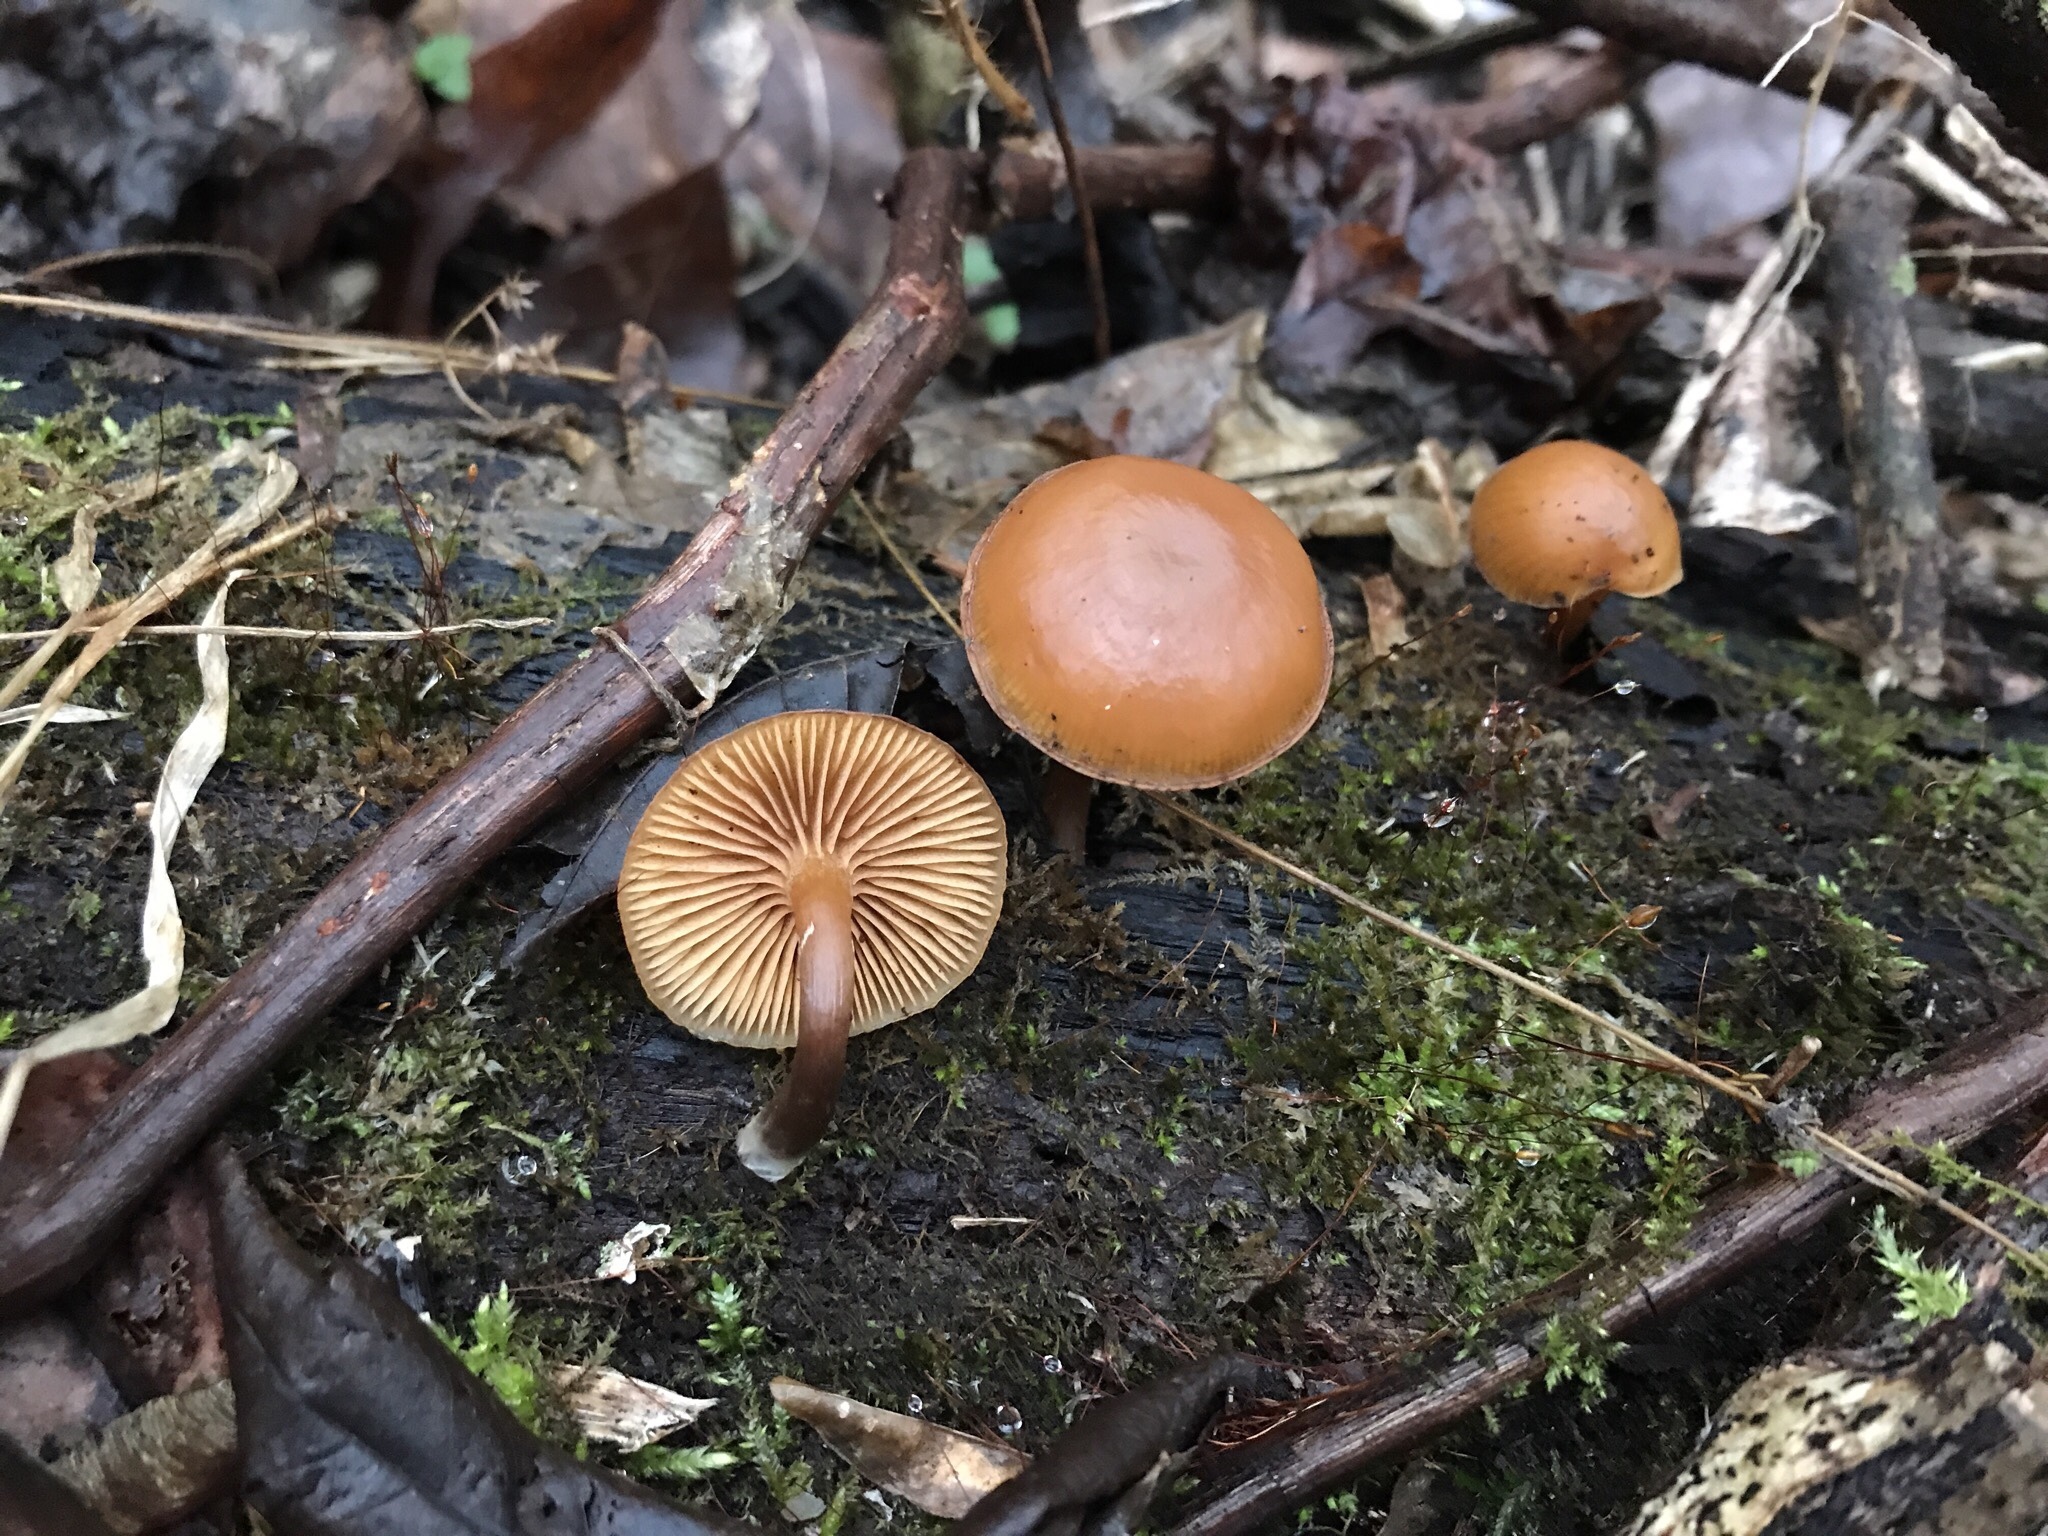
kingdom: Fungi
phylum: Basidiomycota
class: Agaricomycetes
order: Agaricales
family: Hymenogastraceae
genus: Galerina
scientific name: Galerina marginata
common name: Funeral bell
